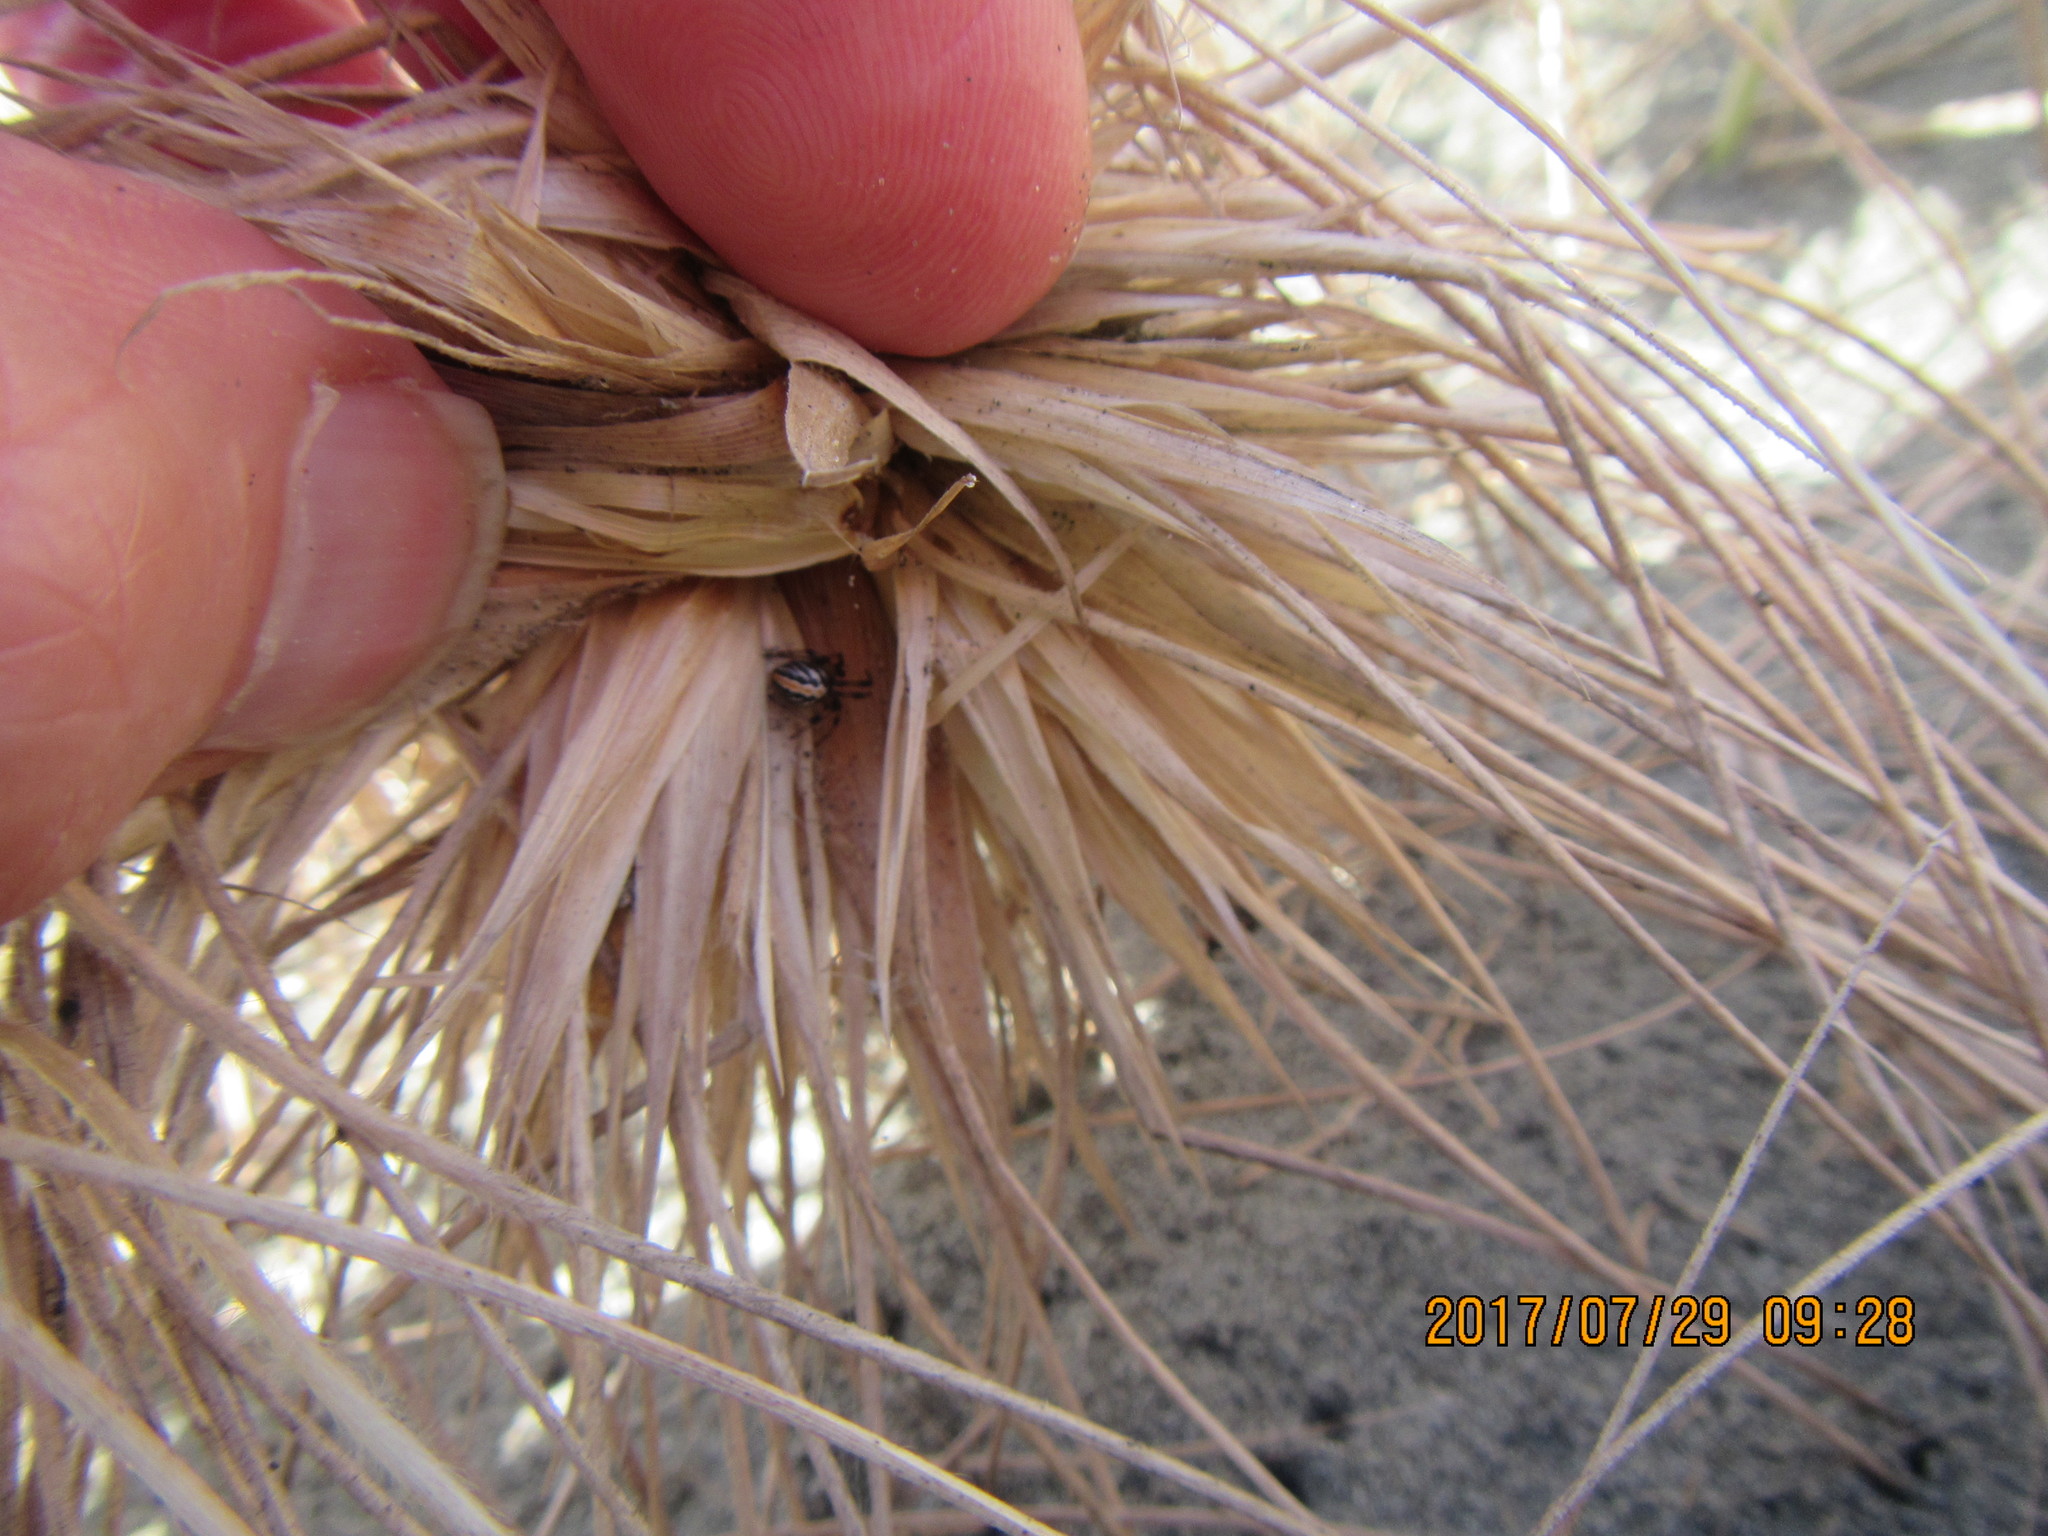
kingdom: Animalia
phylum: Arthropoda
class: Arachnida
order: Araneae
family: Theridiidae
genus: Latrodectus
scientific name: Latrodectus katipo
